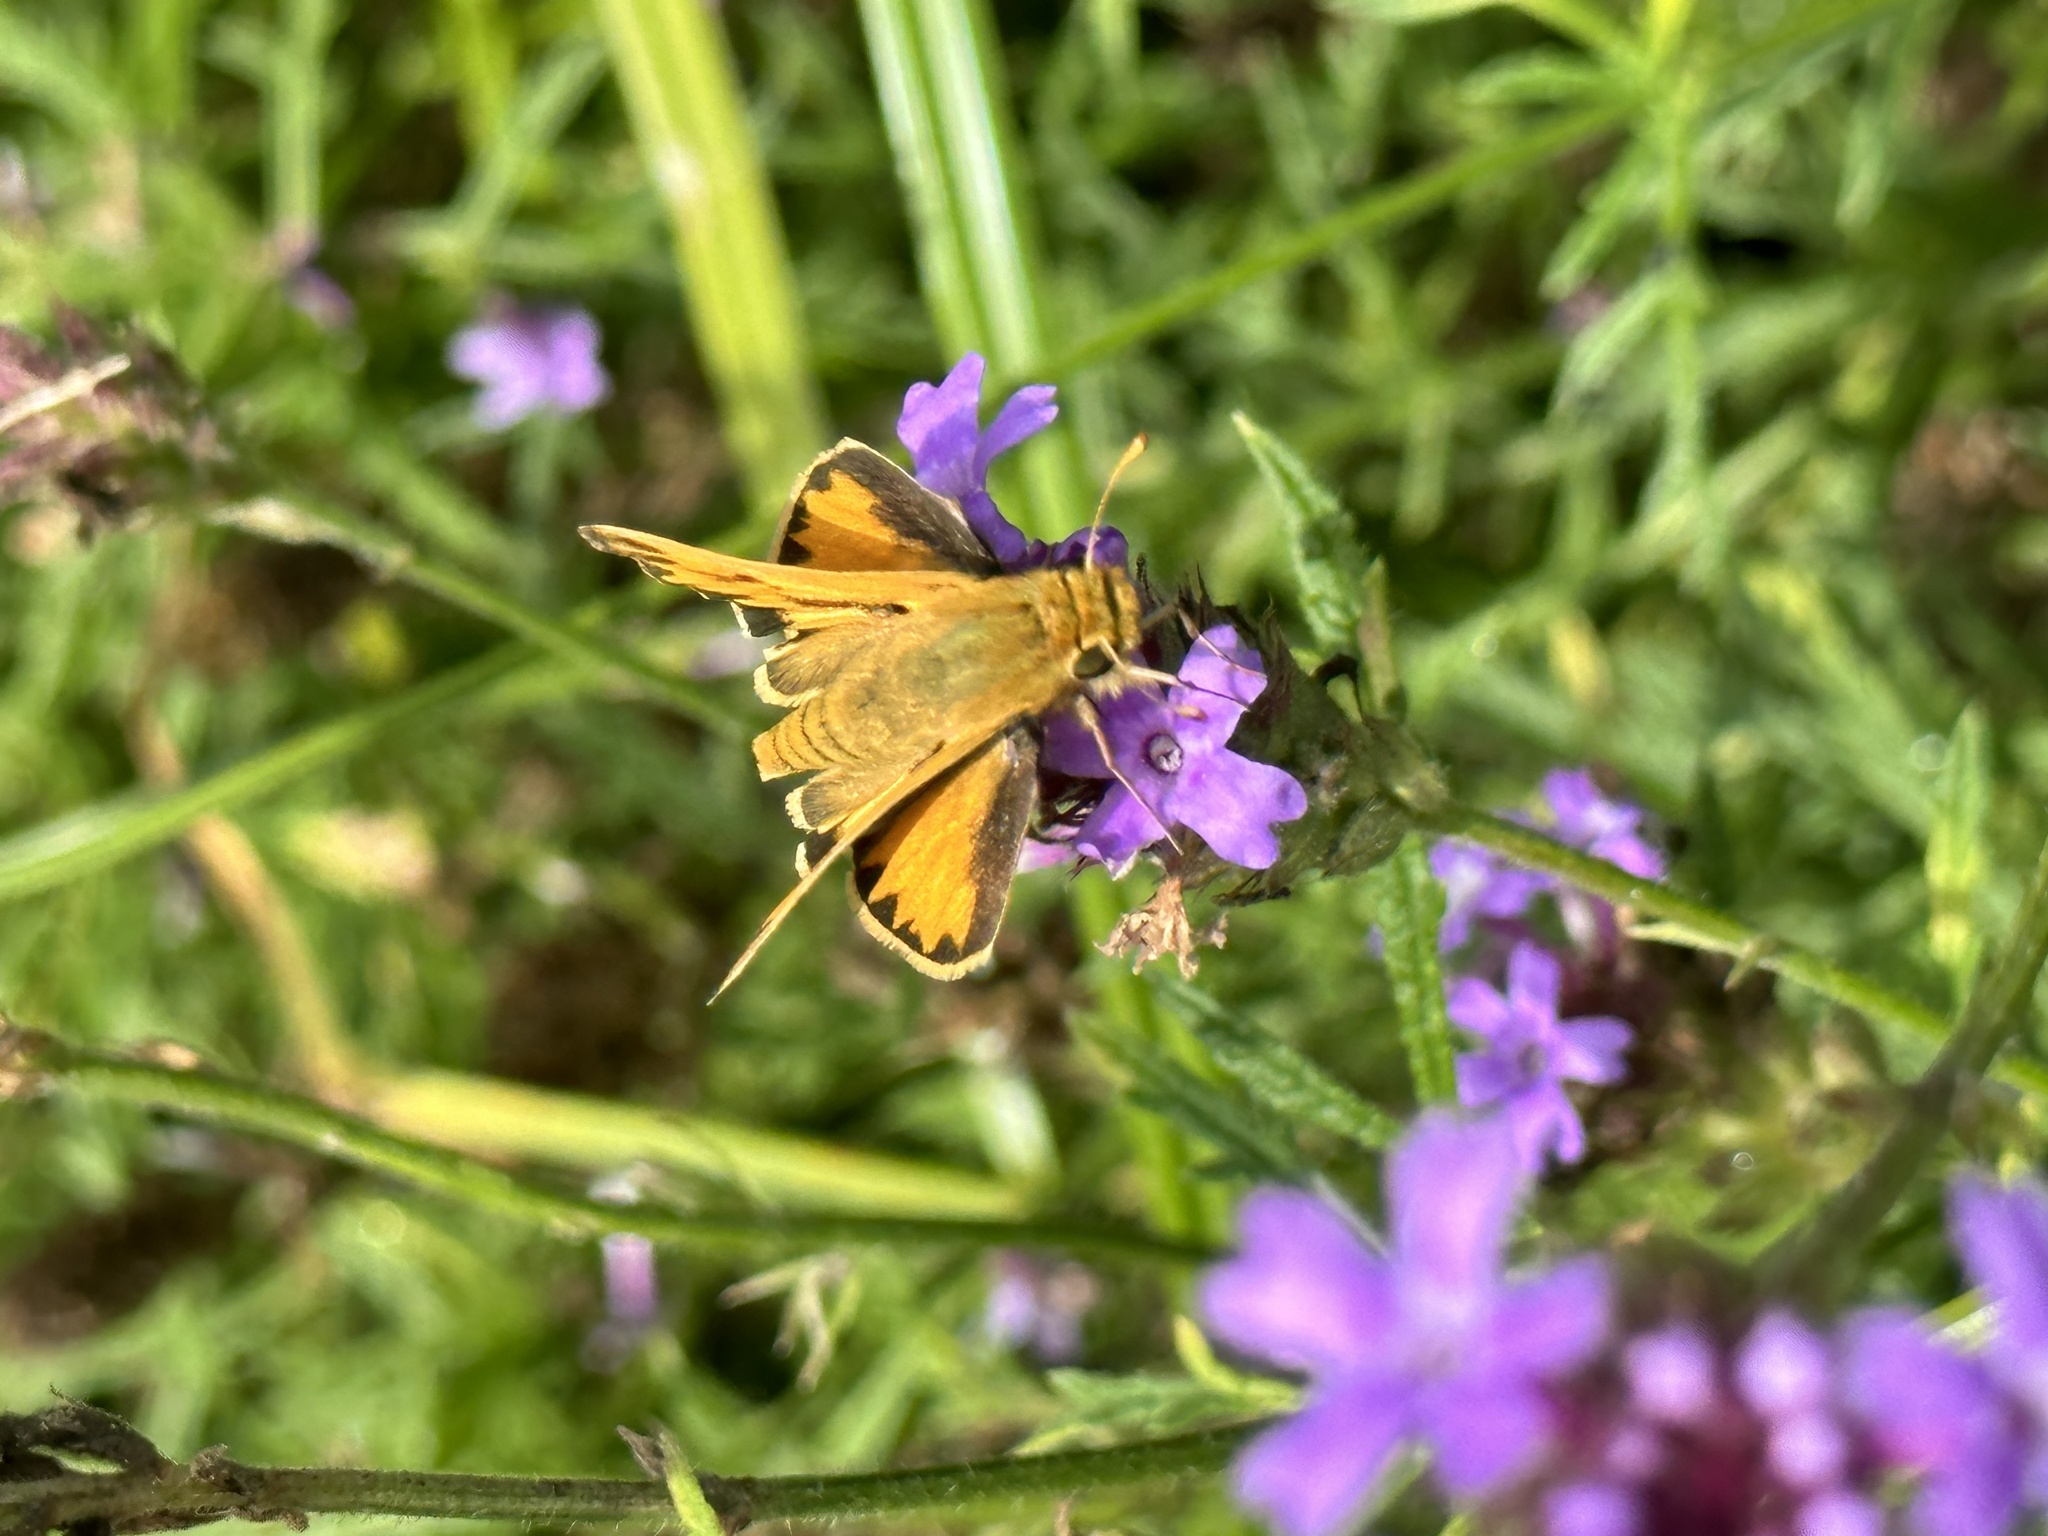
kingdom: Animalia
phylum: Arthropoda
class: Insecta
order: Lepidoptera
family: Hesperiidae
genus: Hylephila
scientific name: Hylephila phyleus
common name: Fiery skipper
